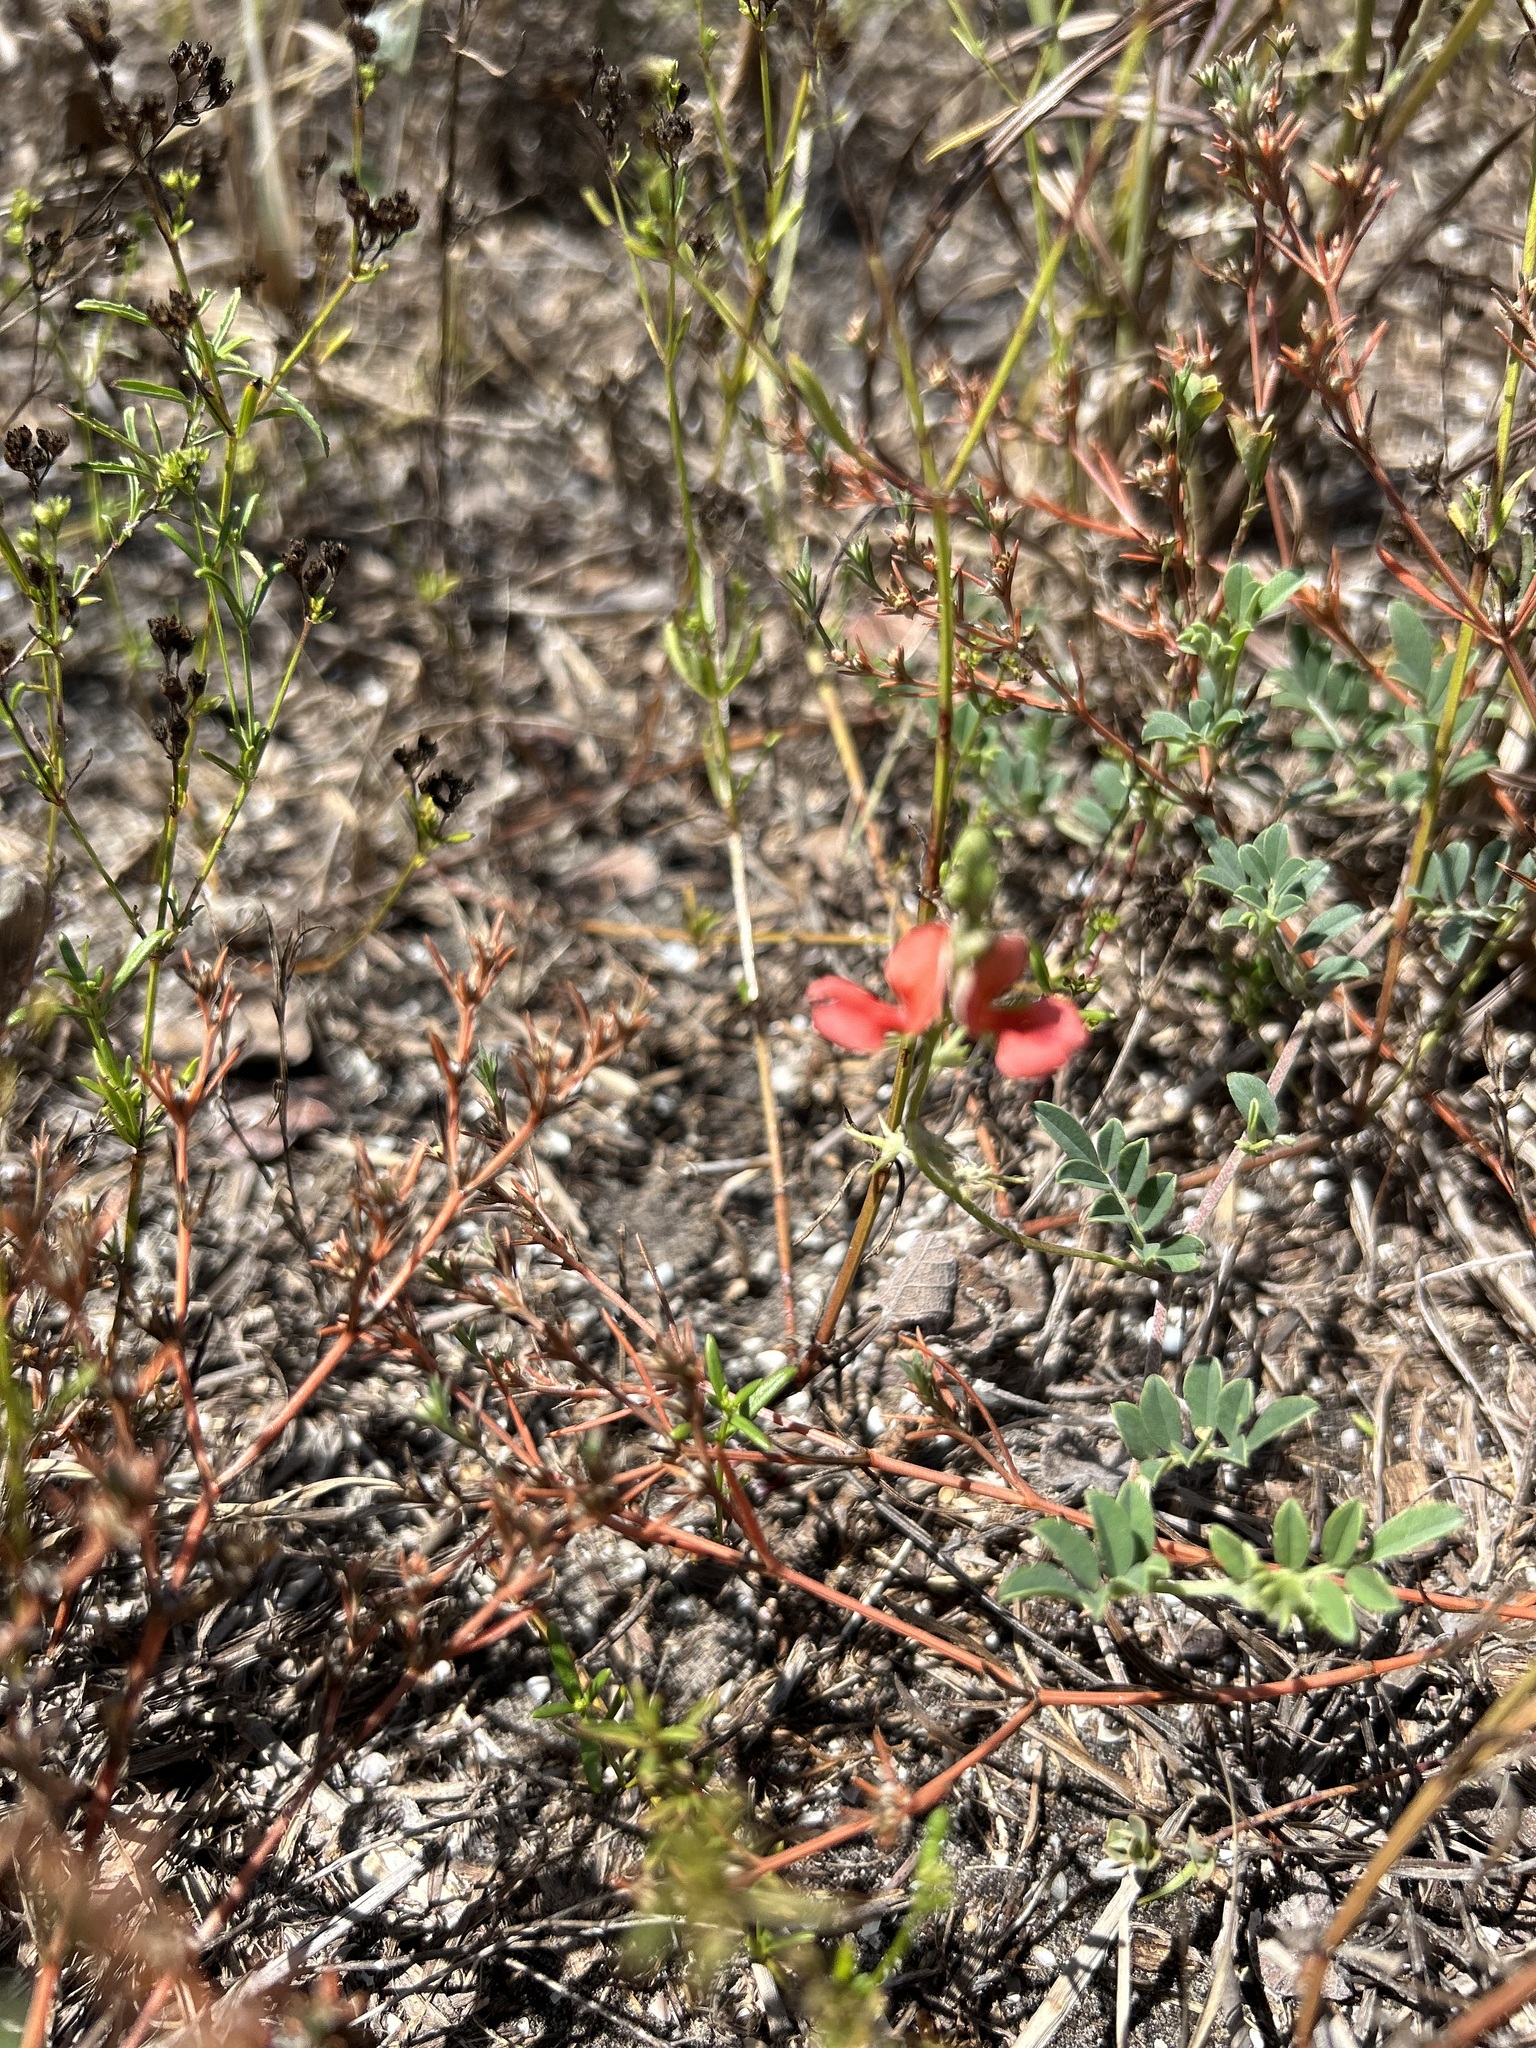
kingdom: Plantae
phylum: Tracheophyta
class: Magnoliopsida
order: Fabales
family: Fabaceae
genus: Indigofera
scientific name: Indigofera miniata
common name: Coast indigo
